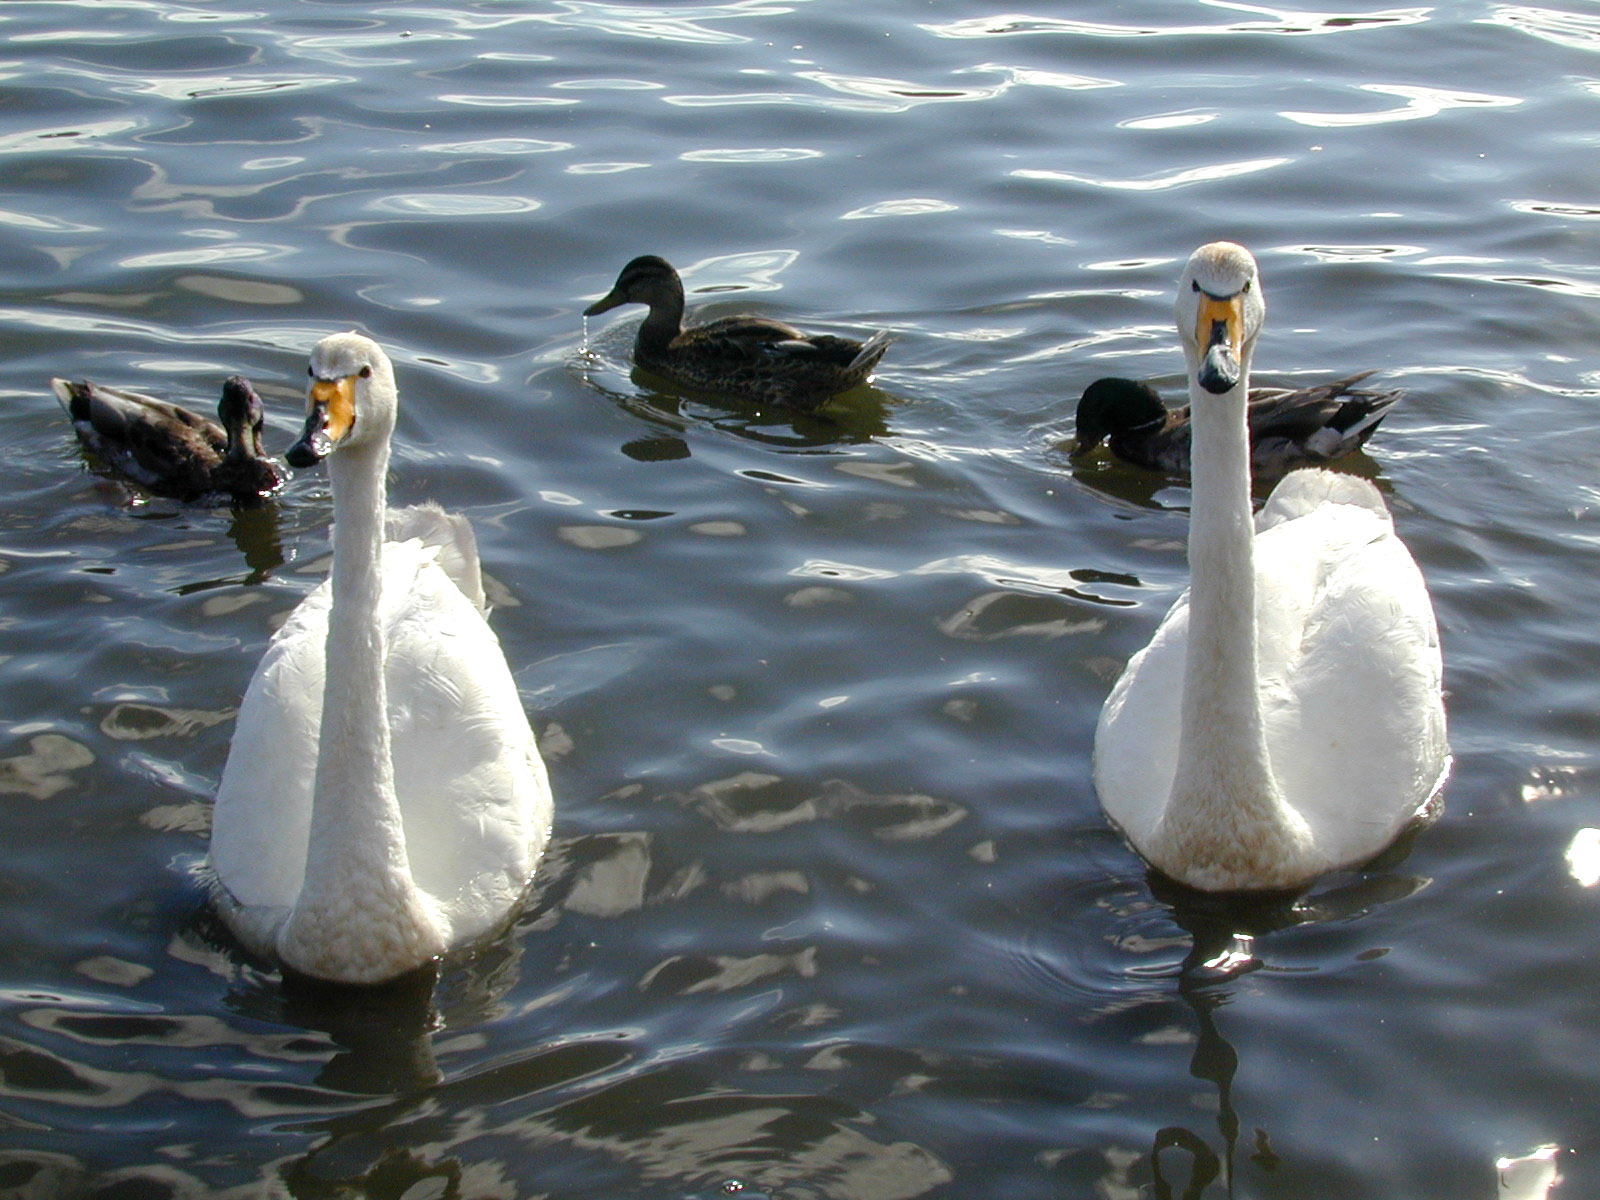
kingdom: Animalia
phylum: Chordata
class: Aves
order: Anseriformes
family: Anatidae
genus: Cygnus
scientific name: Cygnus cygnus
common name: Whooper swan
